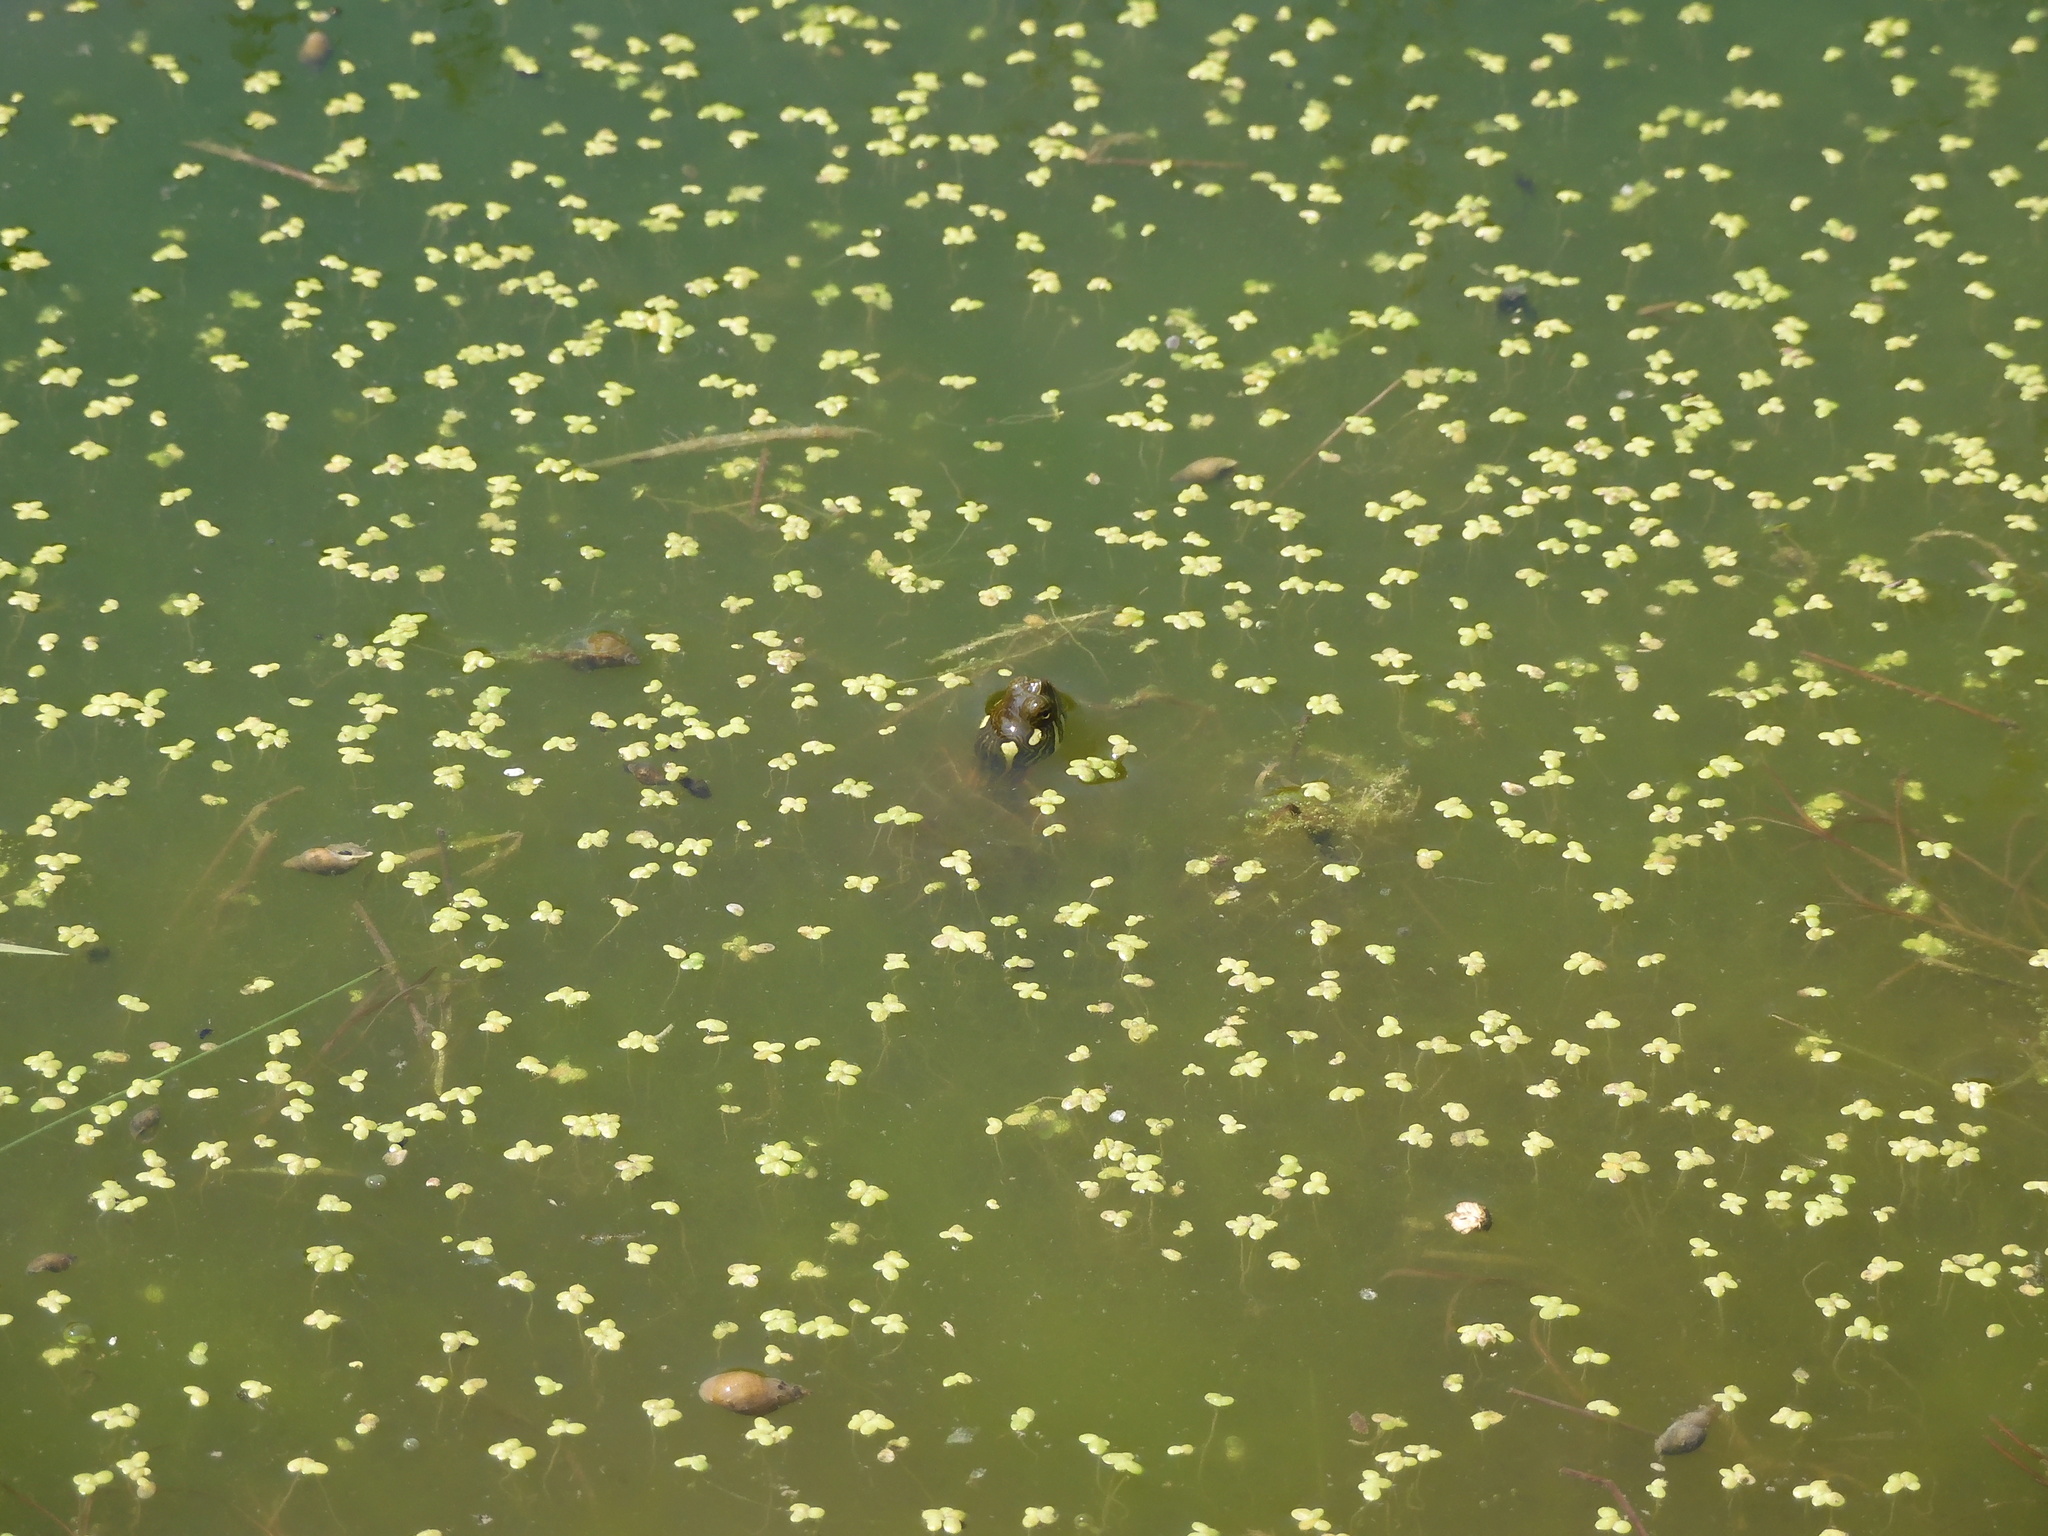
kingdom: Animalia
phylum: Chordata
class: Testudines
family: Emydidae
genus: Chrysemys
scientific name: Chrysemys picta
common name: Painted turtle
